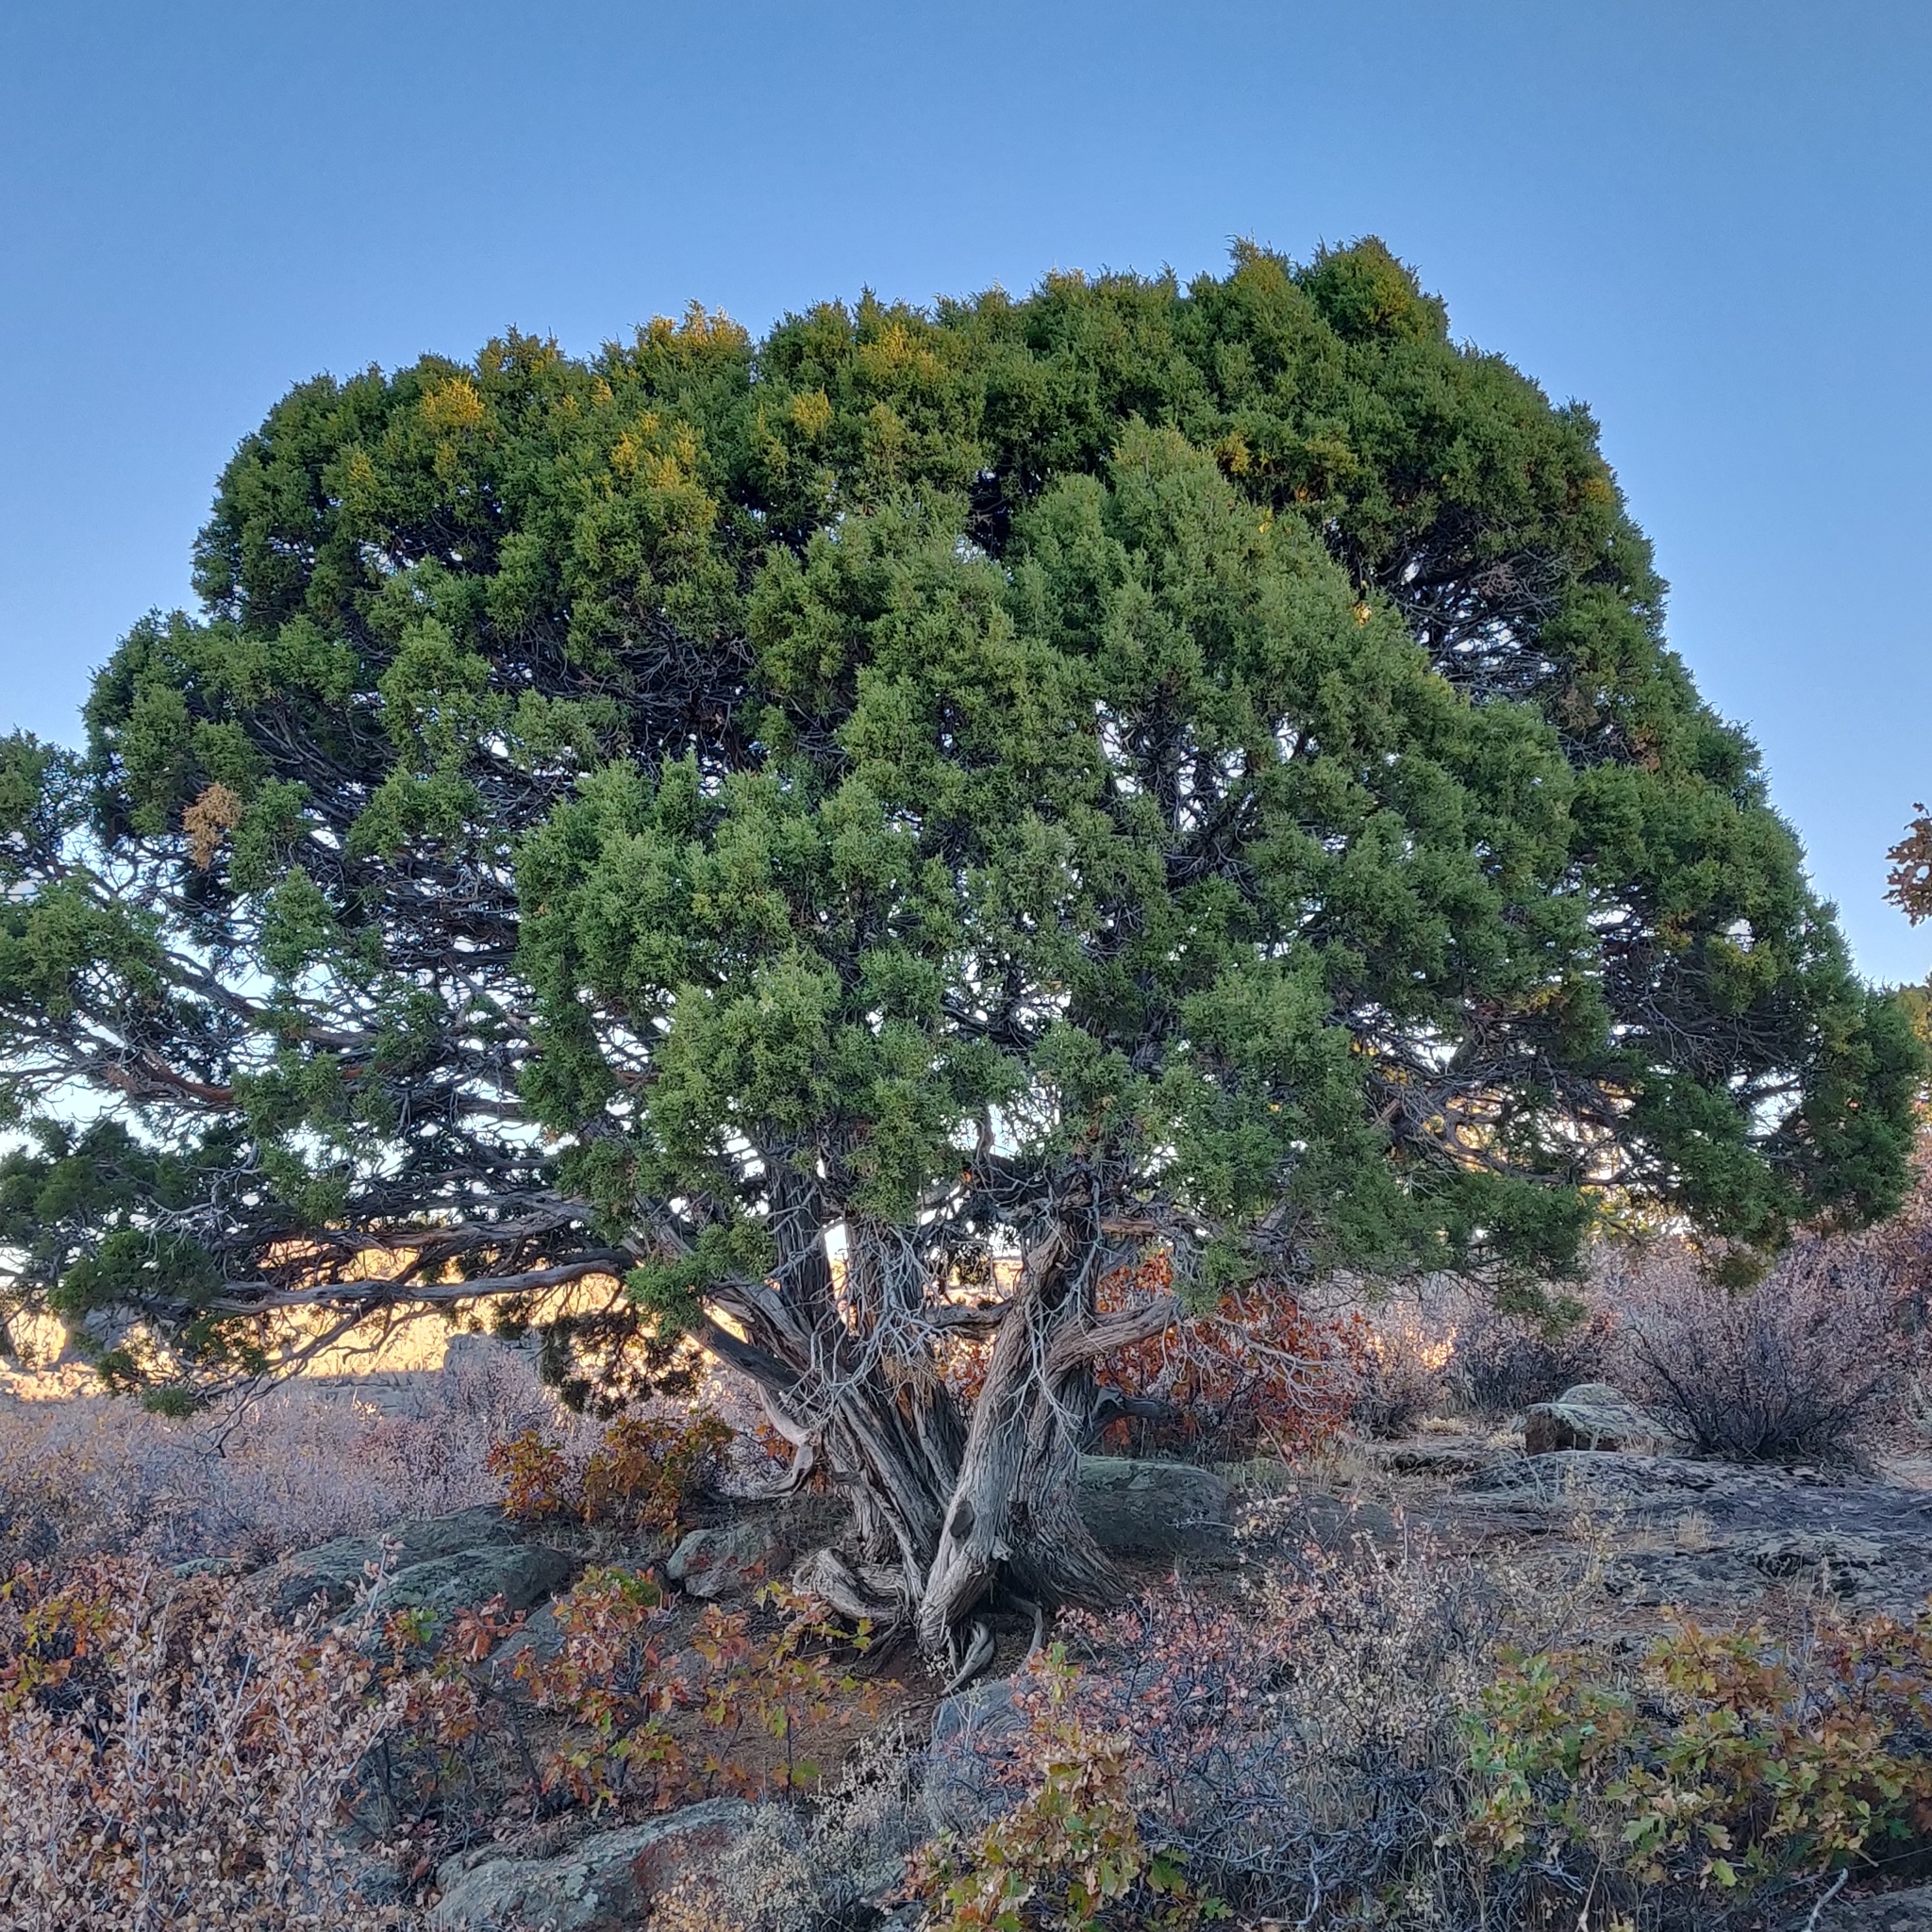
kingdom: Plantae
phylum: Tracheophyta
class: Pinopsida
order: Pinales
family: Cupressaceae
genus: Juniperus
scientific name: Juniperus osteosperma
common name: Utah juniper
